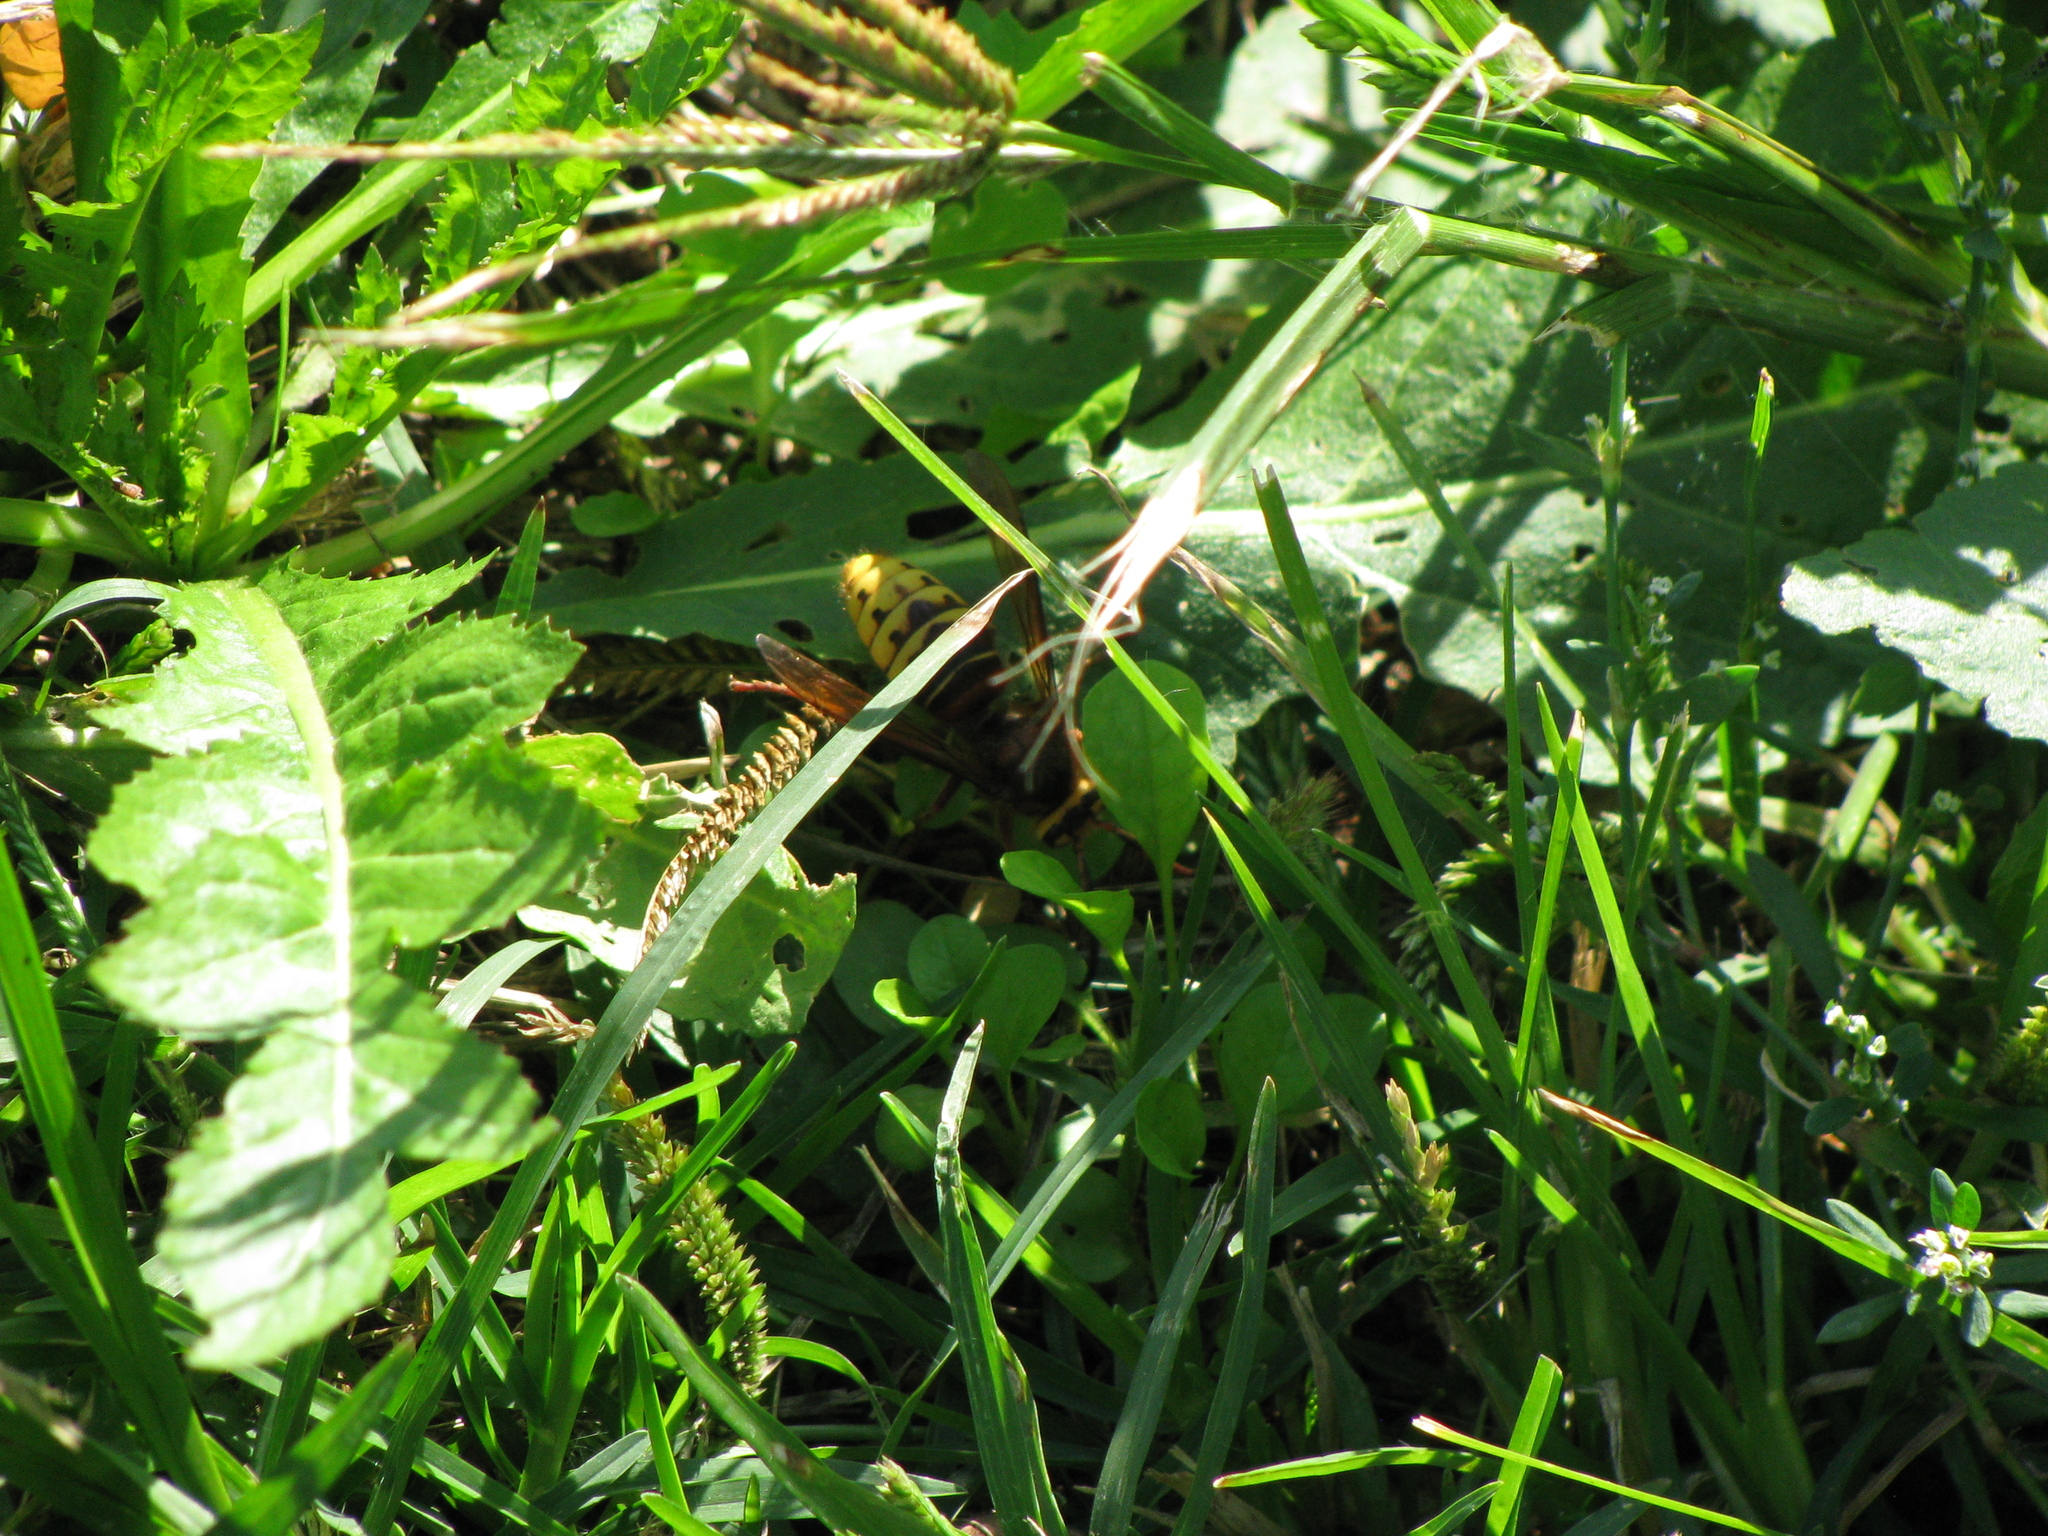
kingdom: Animalia
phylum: Arthropoda
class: Insecta
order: Hymenoptera
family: Vespidae
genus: Vespa
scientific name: Vespa crabro
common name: Hornet
